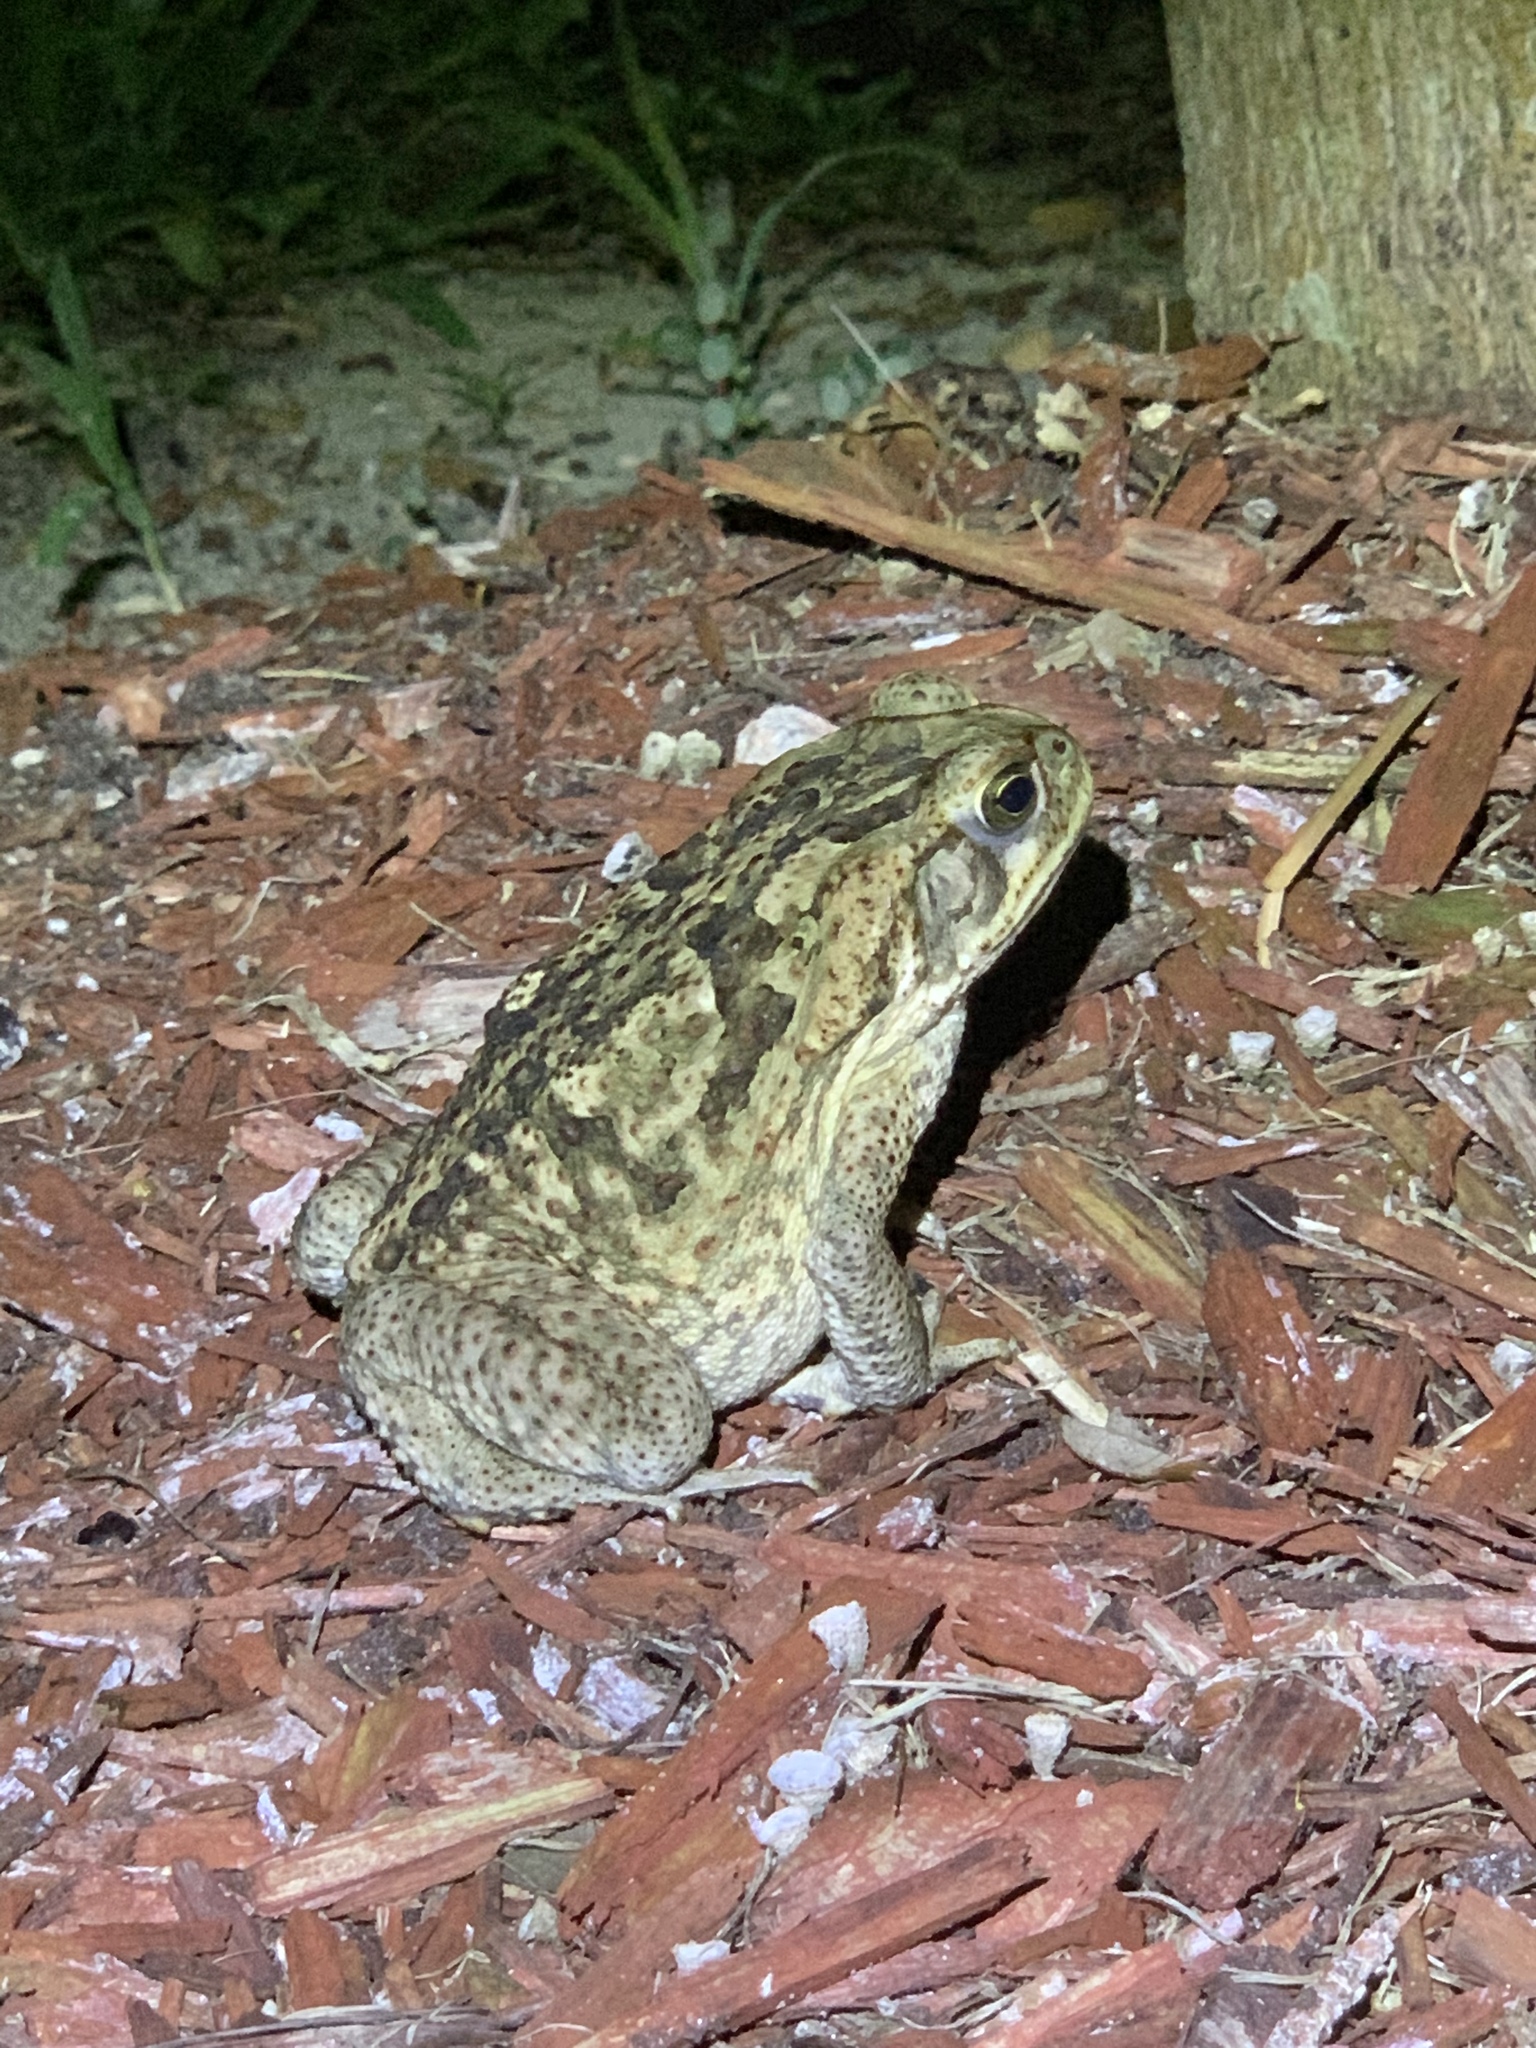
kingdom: Animalia
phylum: Chordata
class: Amphibia
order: Anura
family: Bufonidae
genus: Rhinella
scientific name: Rhinella marina
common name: Cane toad
